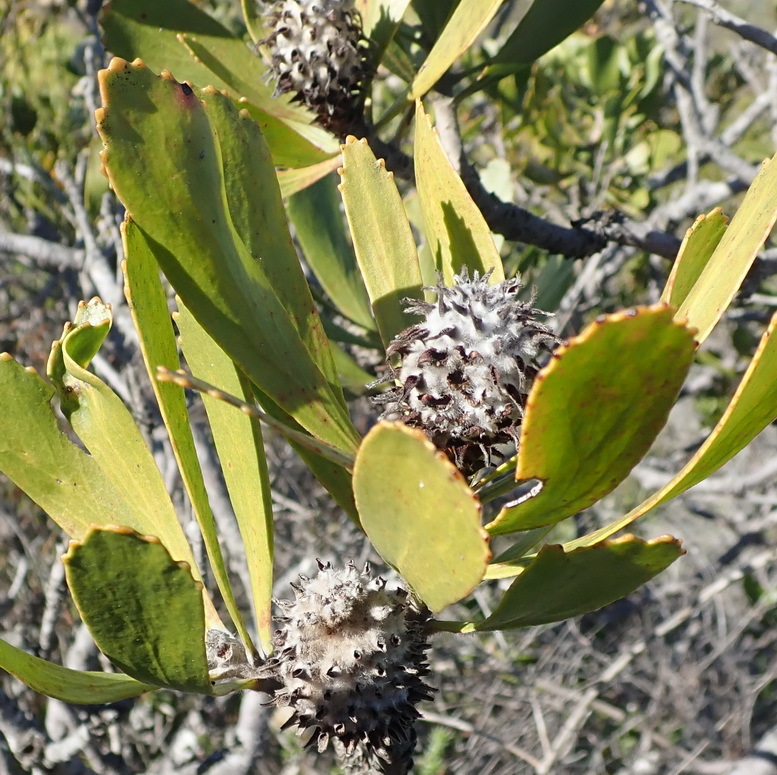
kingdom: Plantae
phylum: Tracheophyta
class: Magnoliopsida
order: Proteales
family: Proteaceae
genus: Leucospermum
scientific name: Leucospermum cuneiforme
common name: Common pincushion
